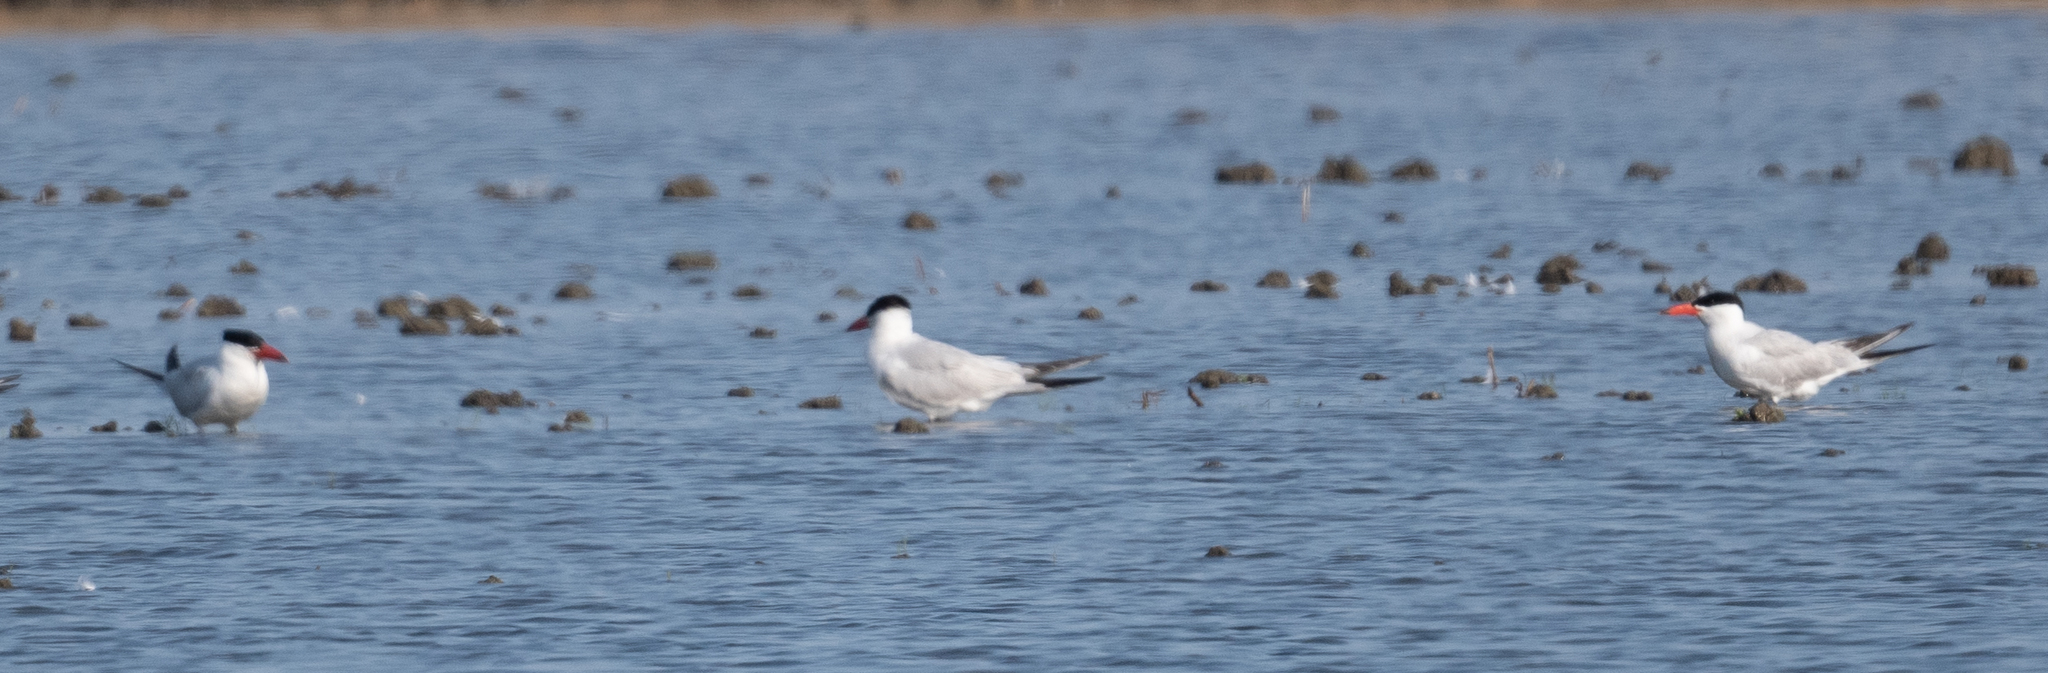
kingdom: Animalia
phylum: Chordata
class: Aves
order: Charadriiformes
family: Laridae
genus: Hydroprogne
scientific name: Hydroprogne caspia
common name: Caspian tern
